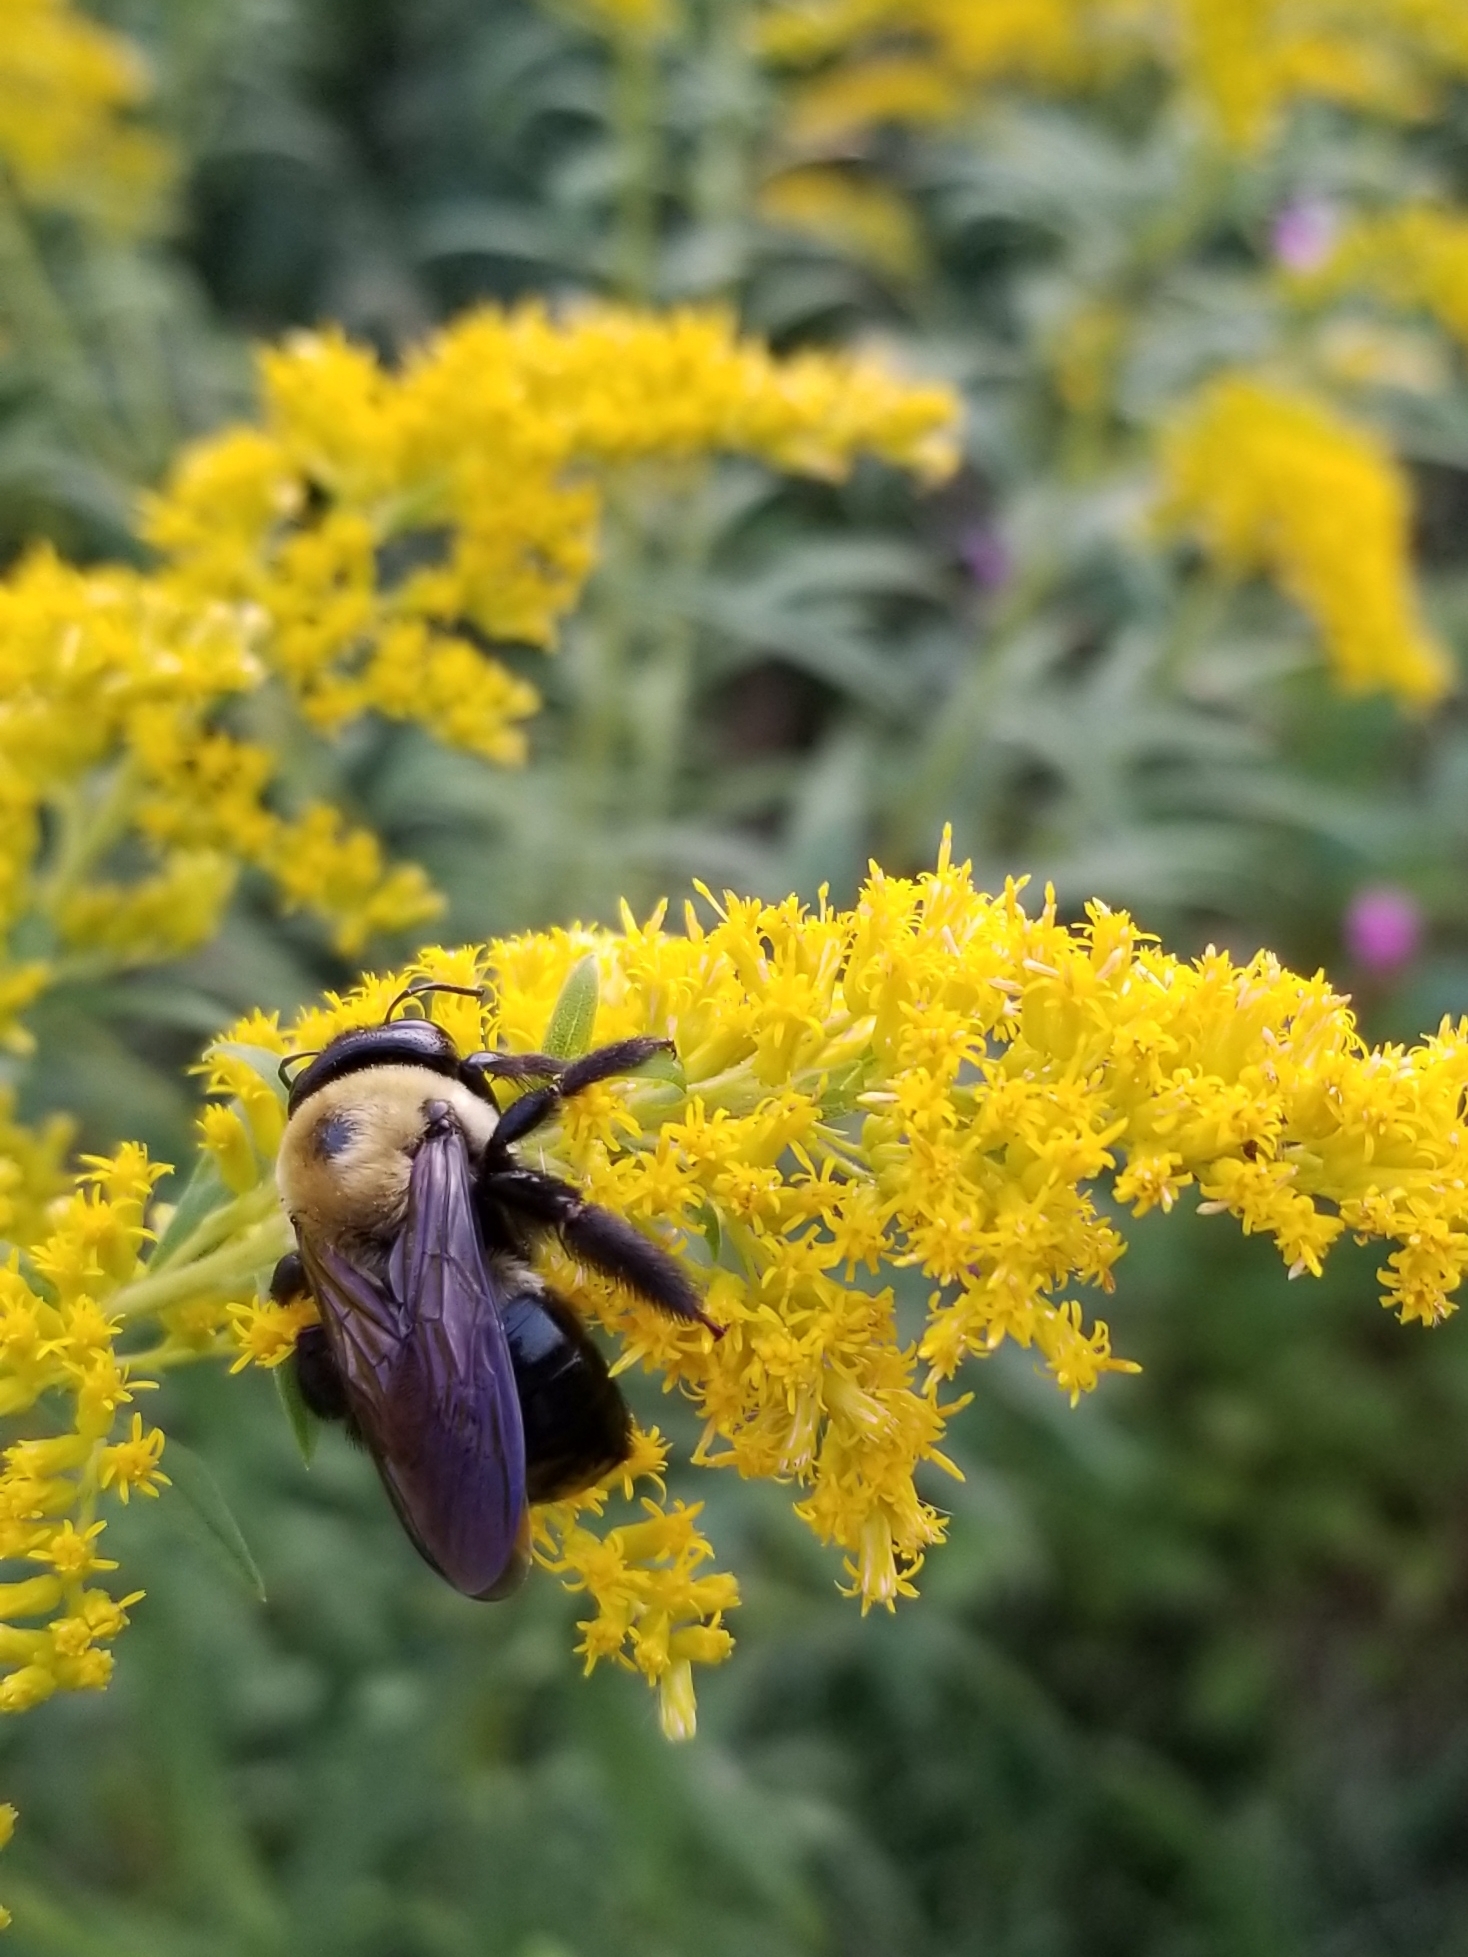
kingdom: Animalia
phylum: Arthropoda
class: Insecta
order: Hymenoptera
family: Apidae
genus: Xylocopa
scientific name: Xylocopa virginica
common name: Carpenter bee
